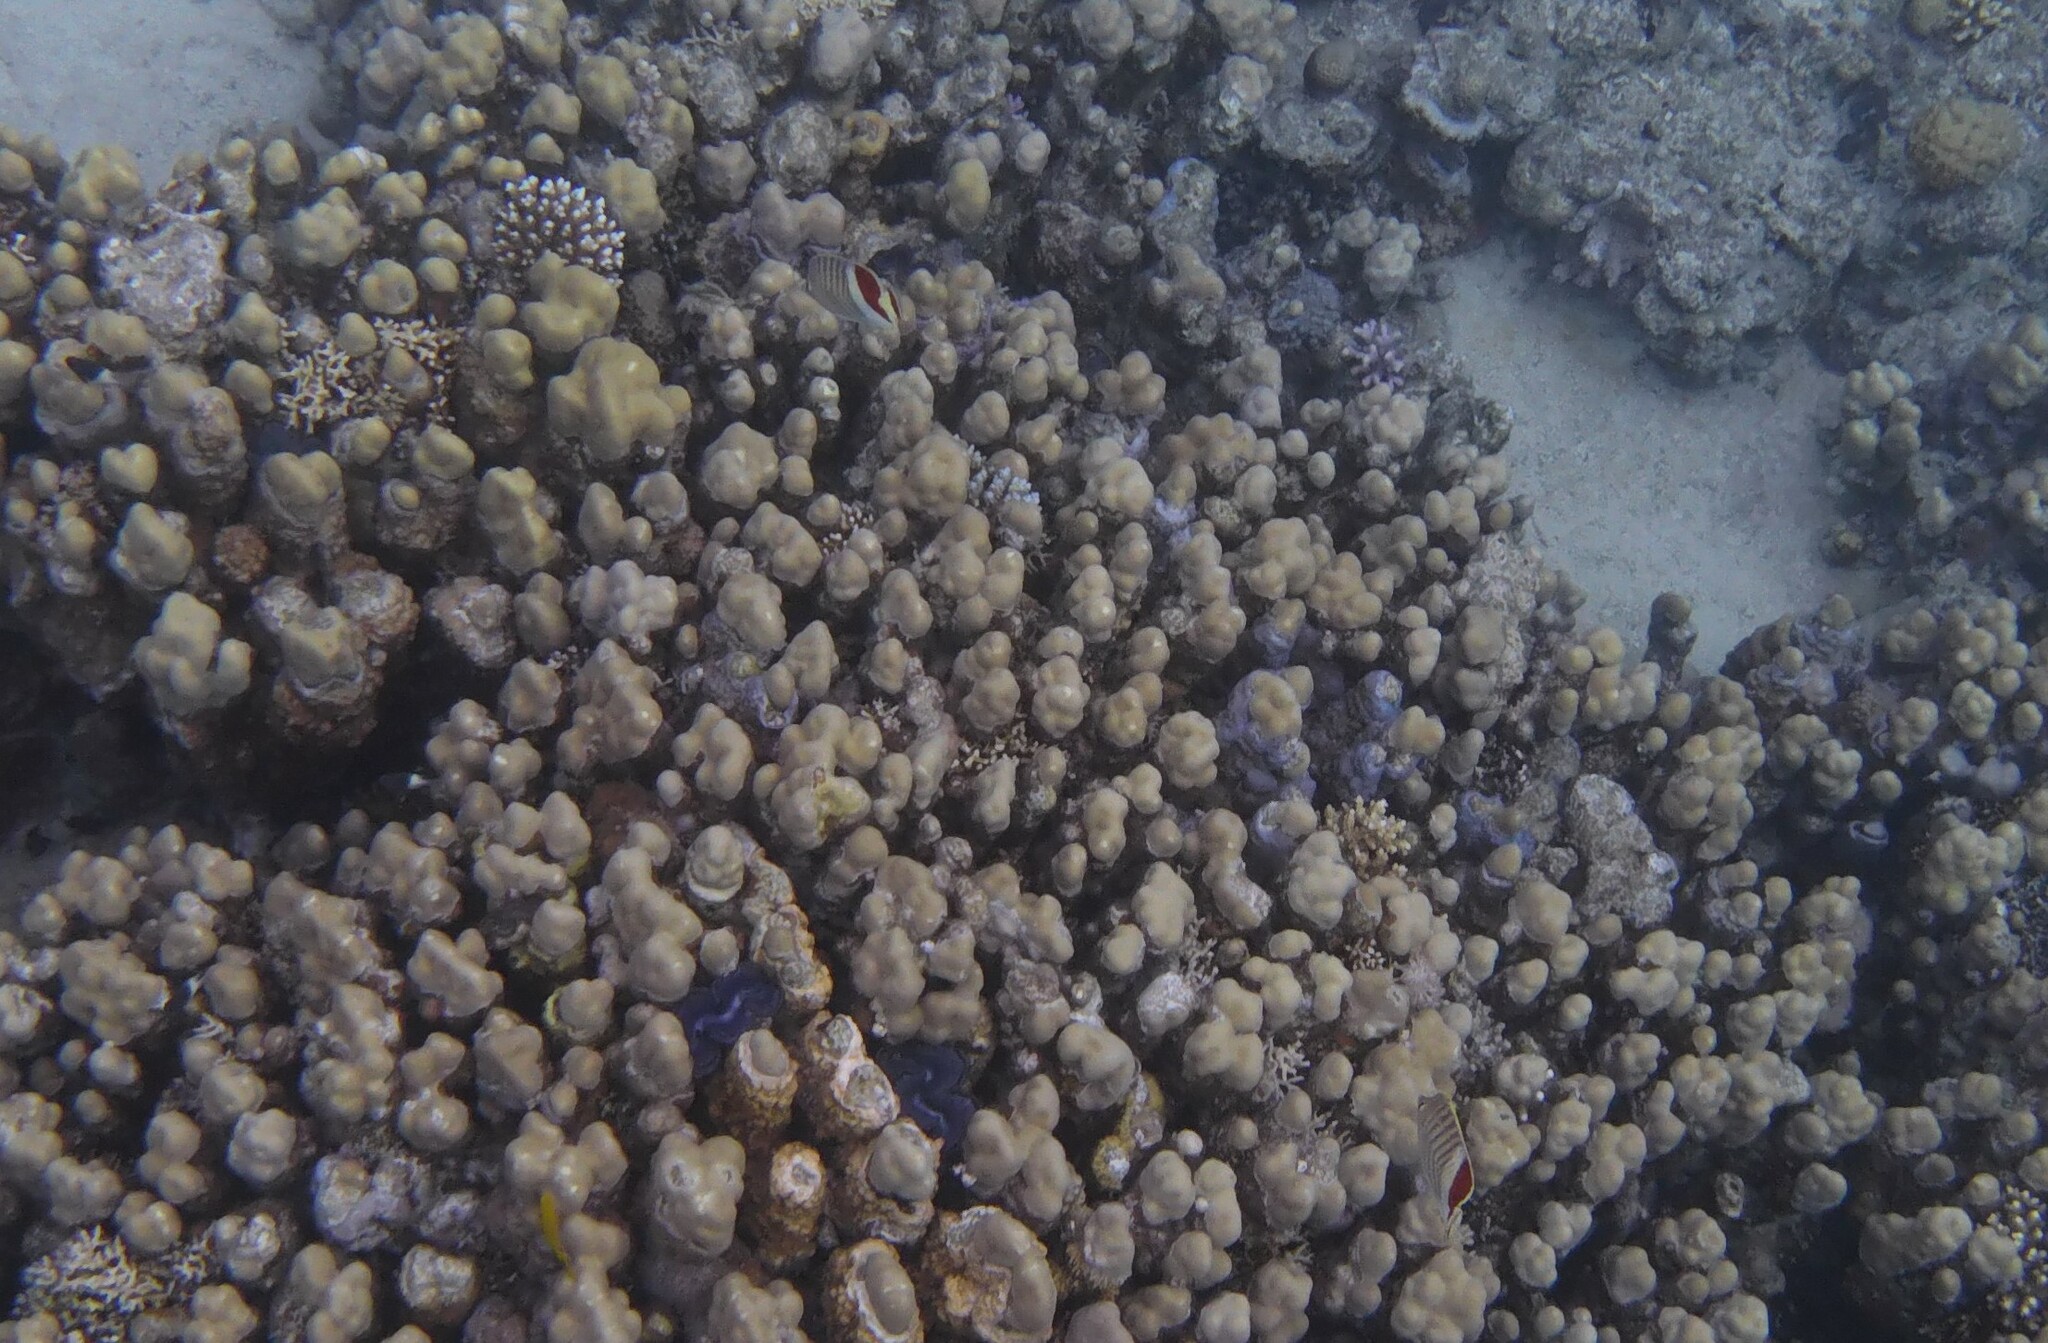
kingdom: Animalia
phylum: Chordata
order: Perciformes
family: Chaetodontidae
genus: Chaetodon
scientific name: Chaetodon paucifasciatus
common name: Crown butterflyfish
